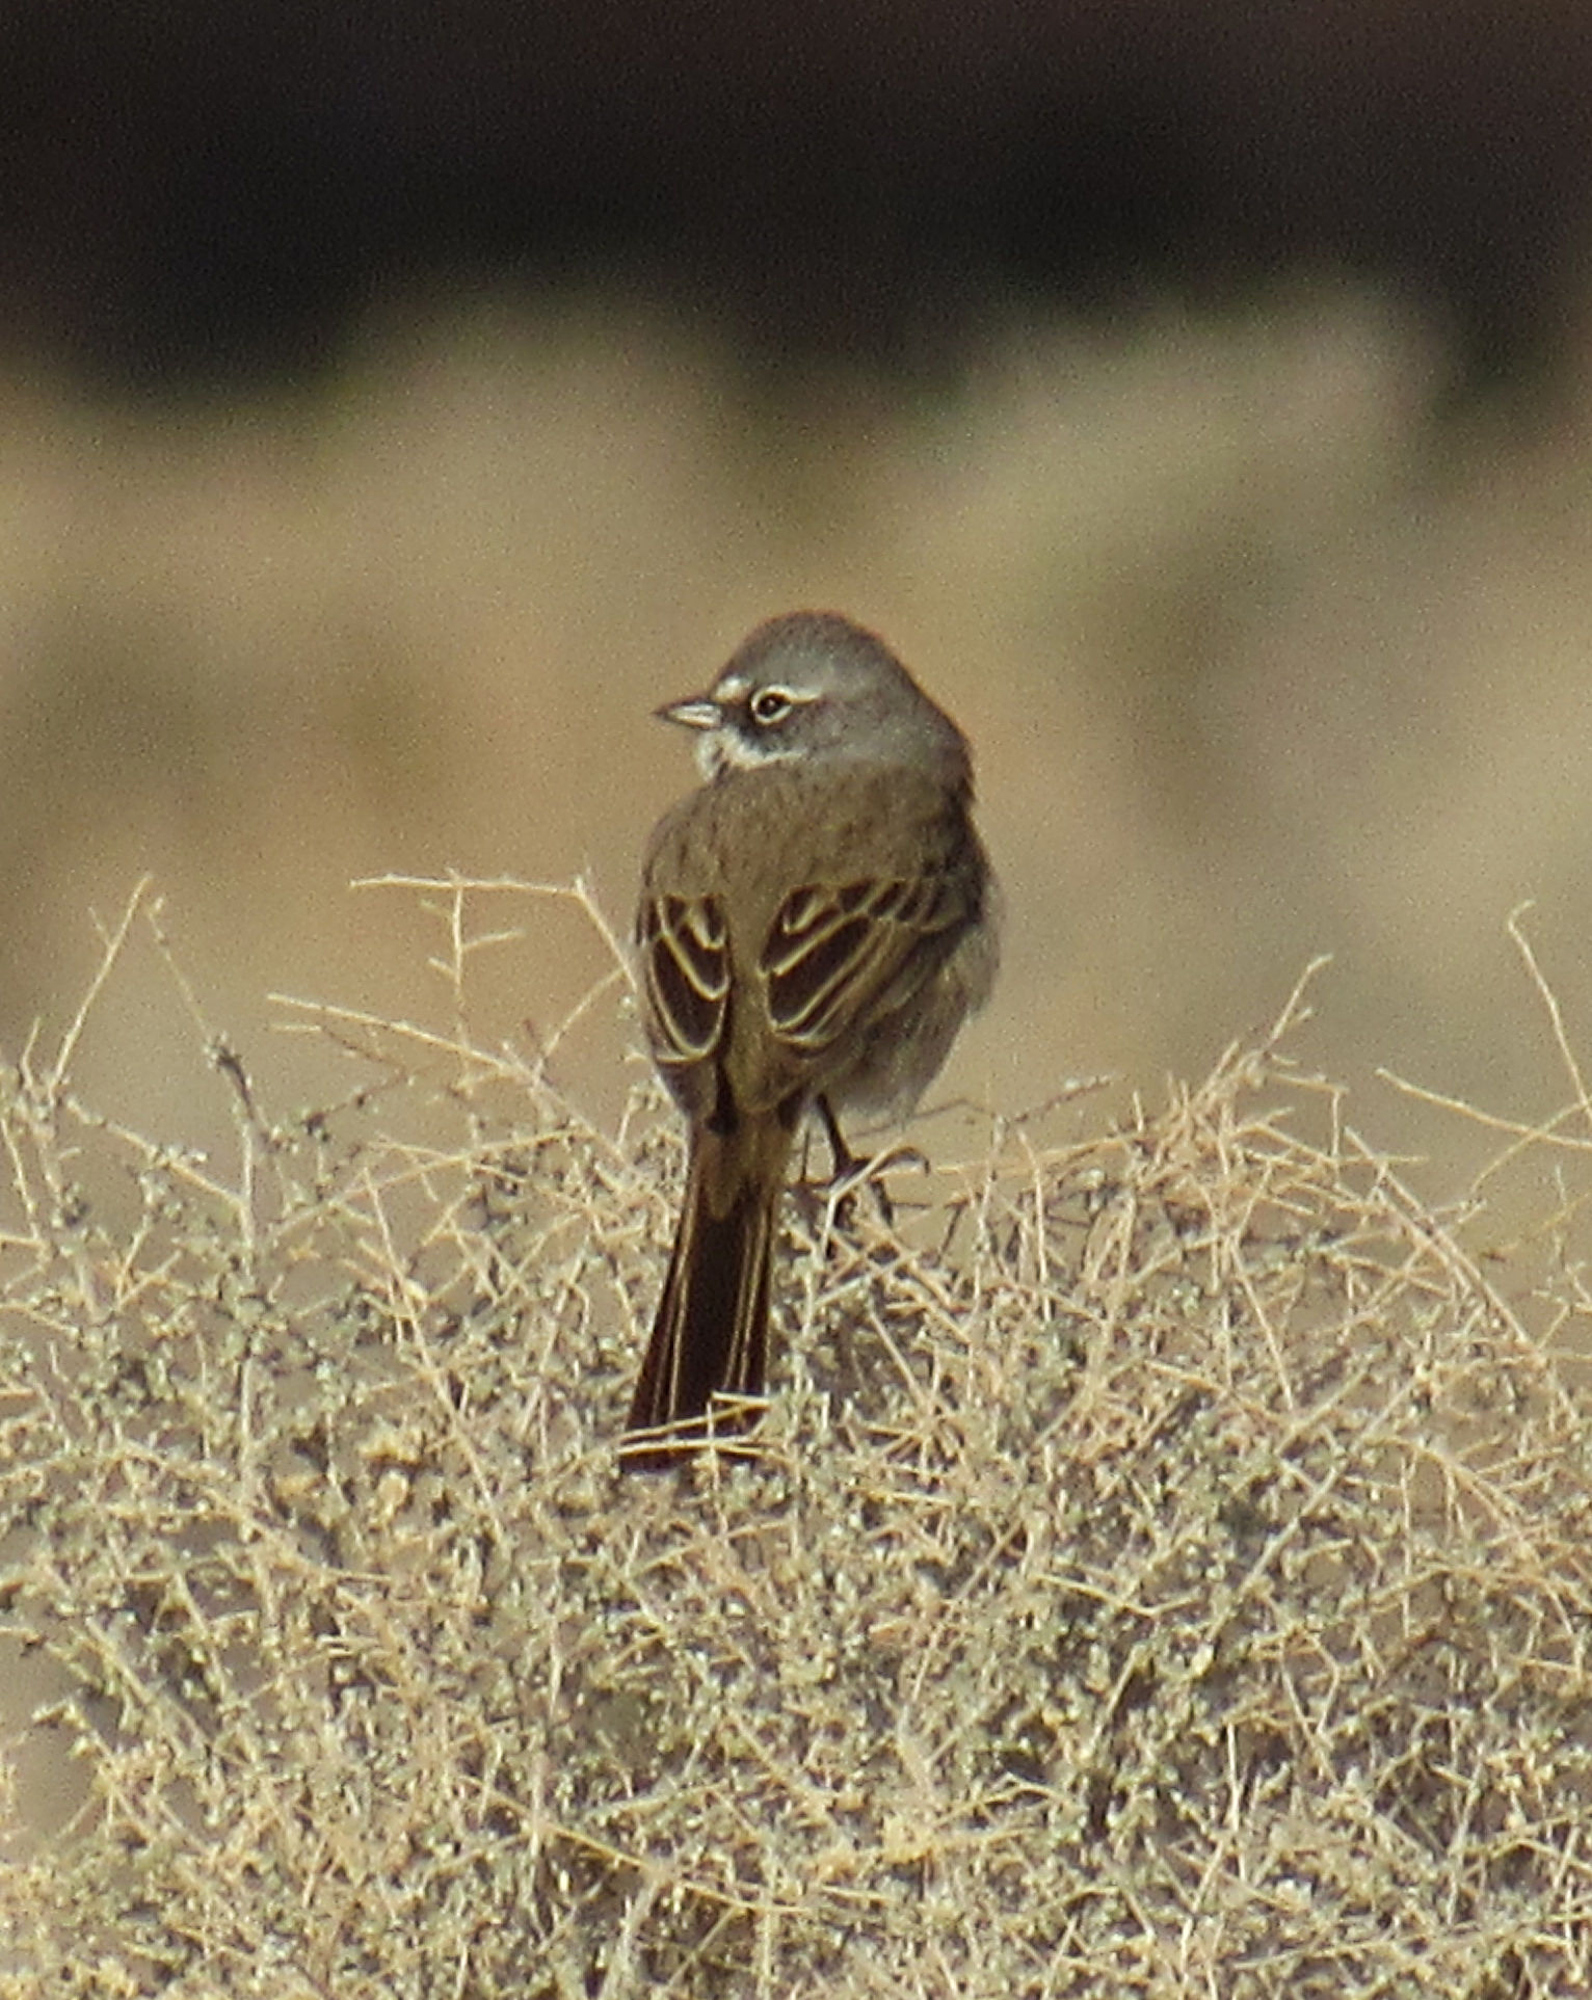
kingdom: Animalia
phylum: Chordata
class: Aves
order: Passeriformes
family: Passerellidae
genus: Artemisiospiza
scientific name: Artemisiospiza belli
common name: Bell's sparrow
